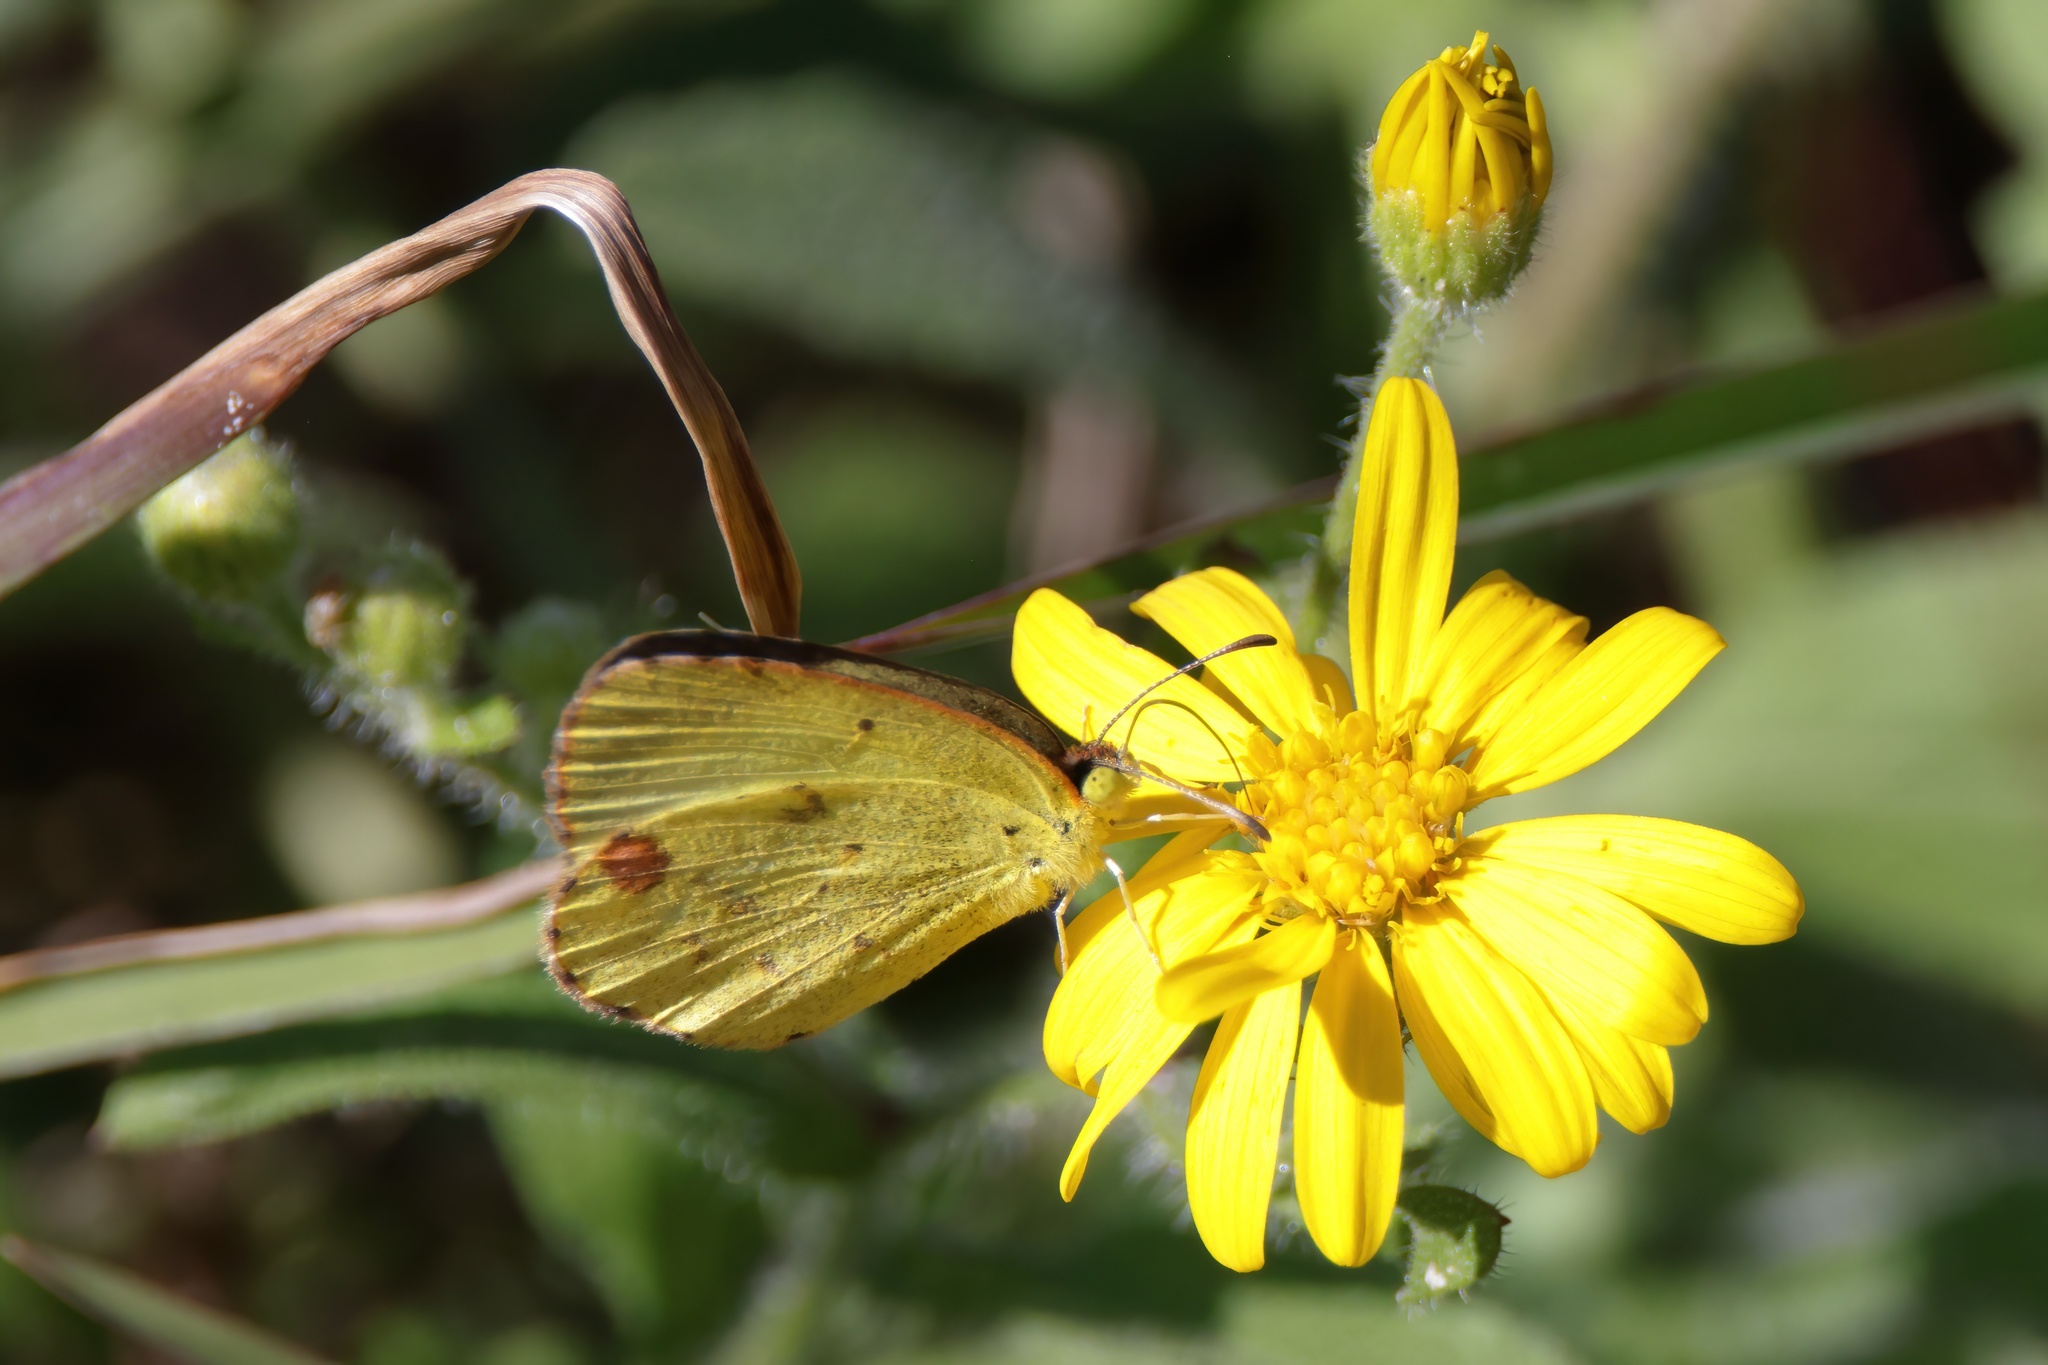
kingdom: Animalia
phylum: Arthropoda
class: Insecta
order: Lepidoptera
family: Pieridae
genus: Pyrisitia
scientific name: Pyrisitia lisa
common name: Little yellow
